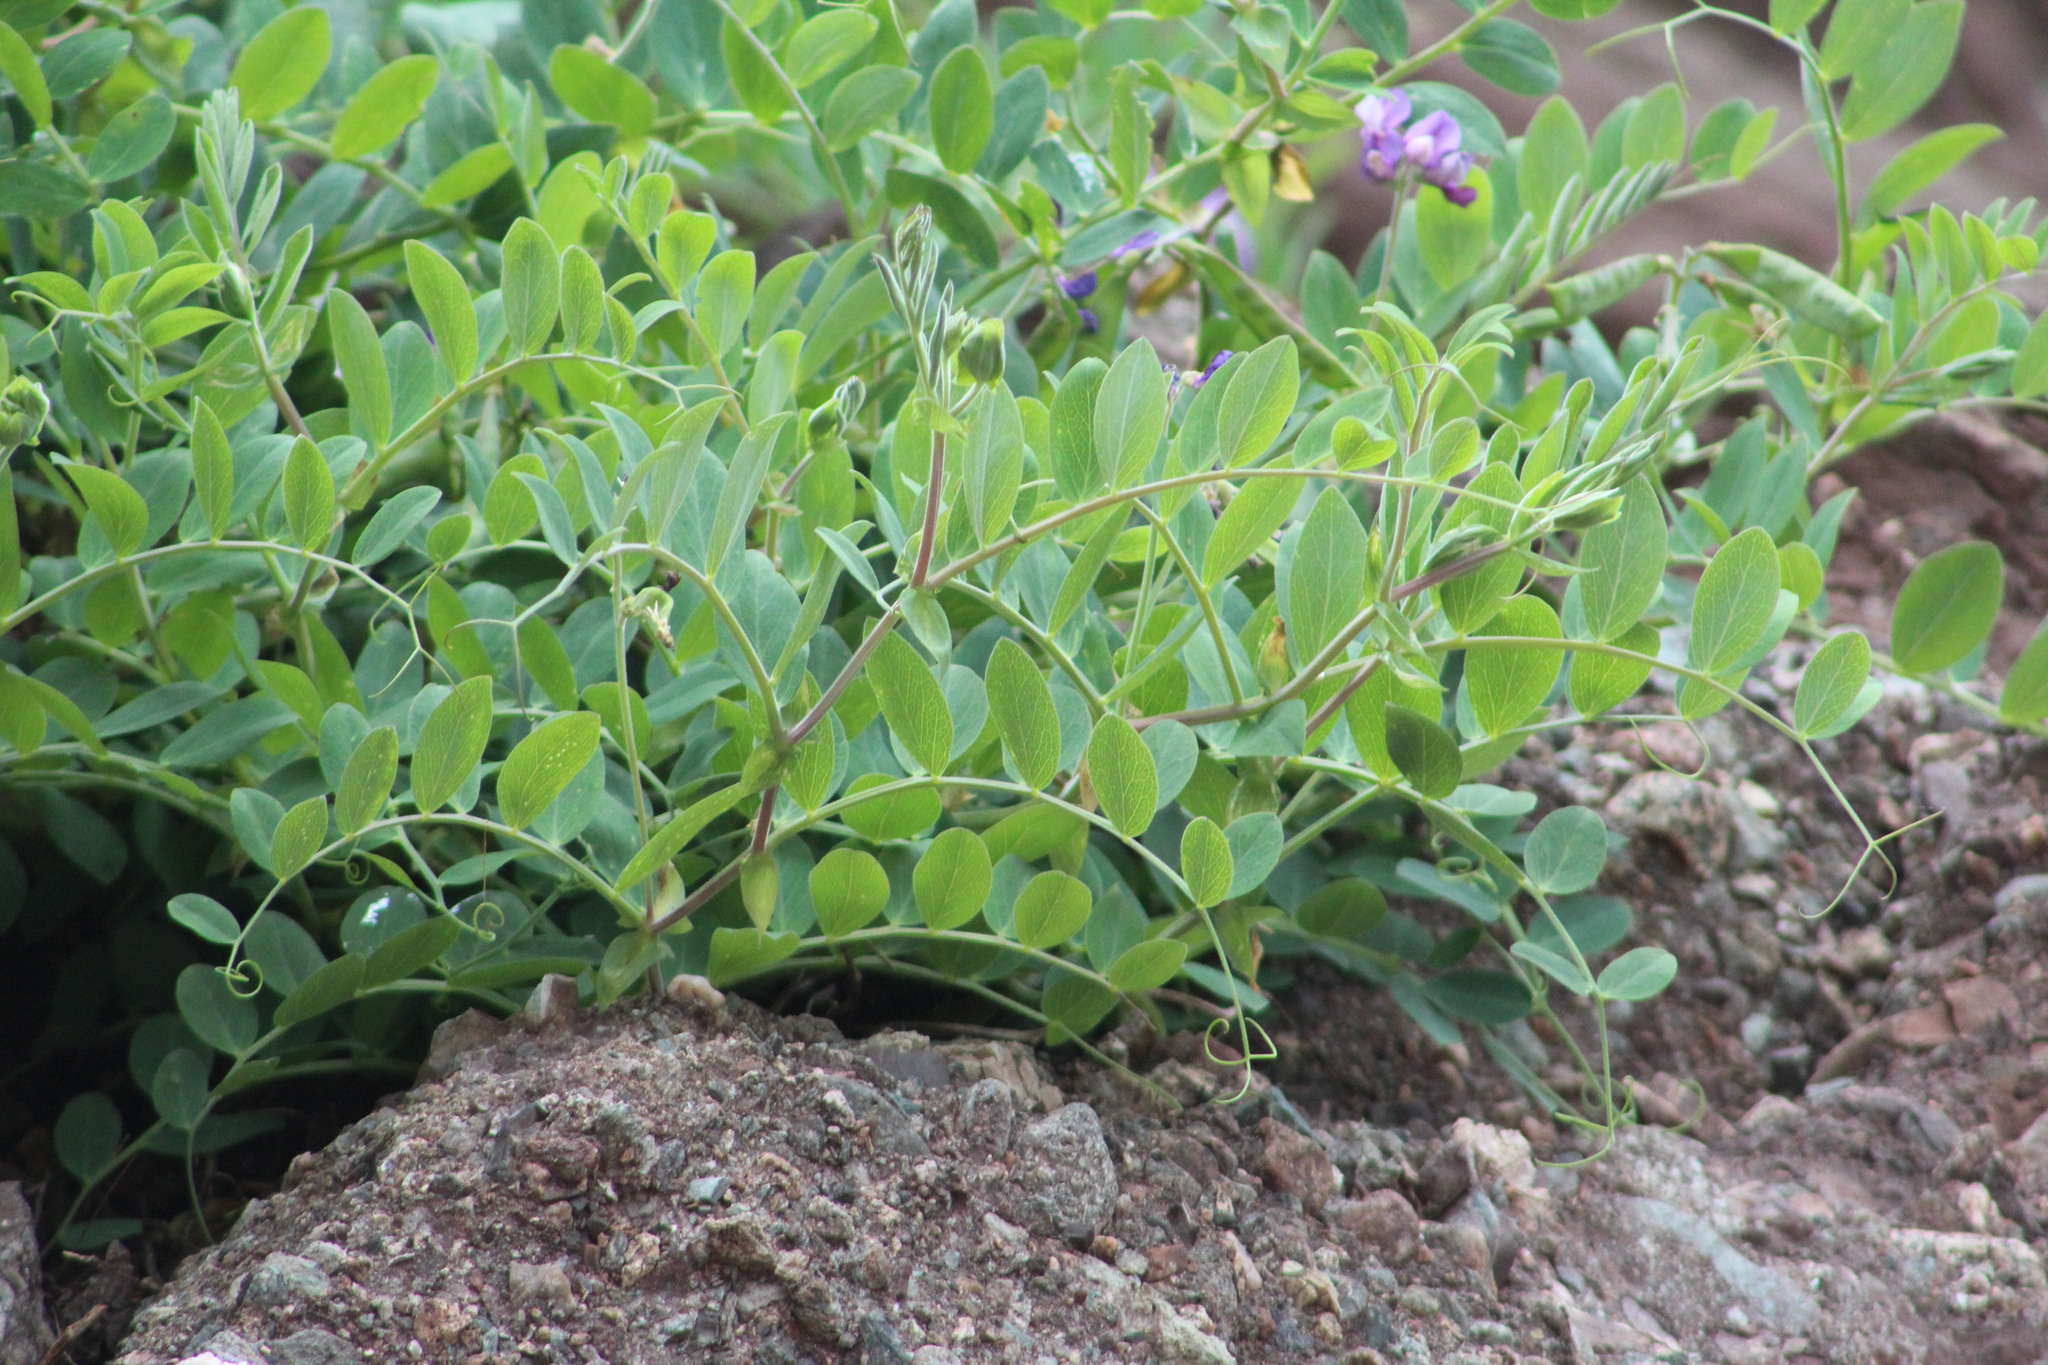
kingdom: Plantae
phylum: Tracheophyta
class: Magnoliopsida
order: Fabales
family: Fabaceae
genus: Lathyrus
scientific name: Lathyrus japonicus
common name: Sea pea
